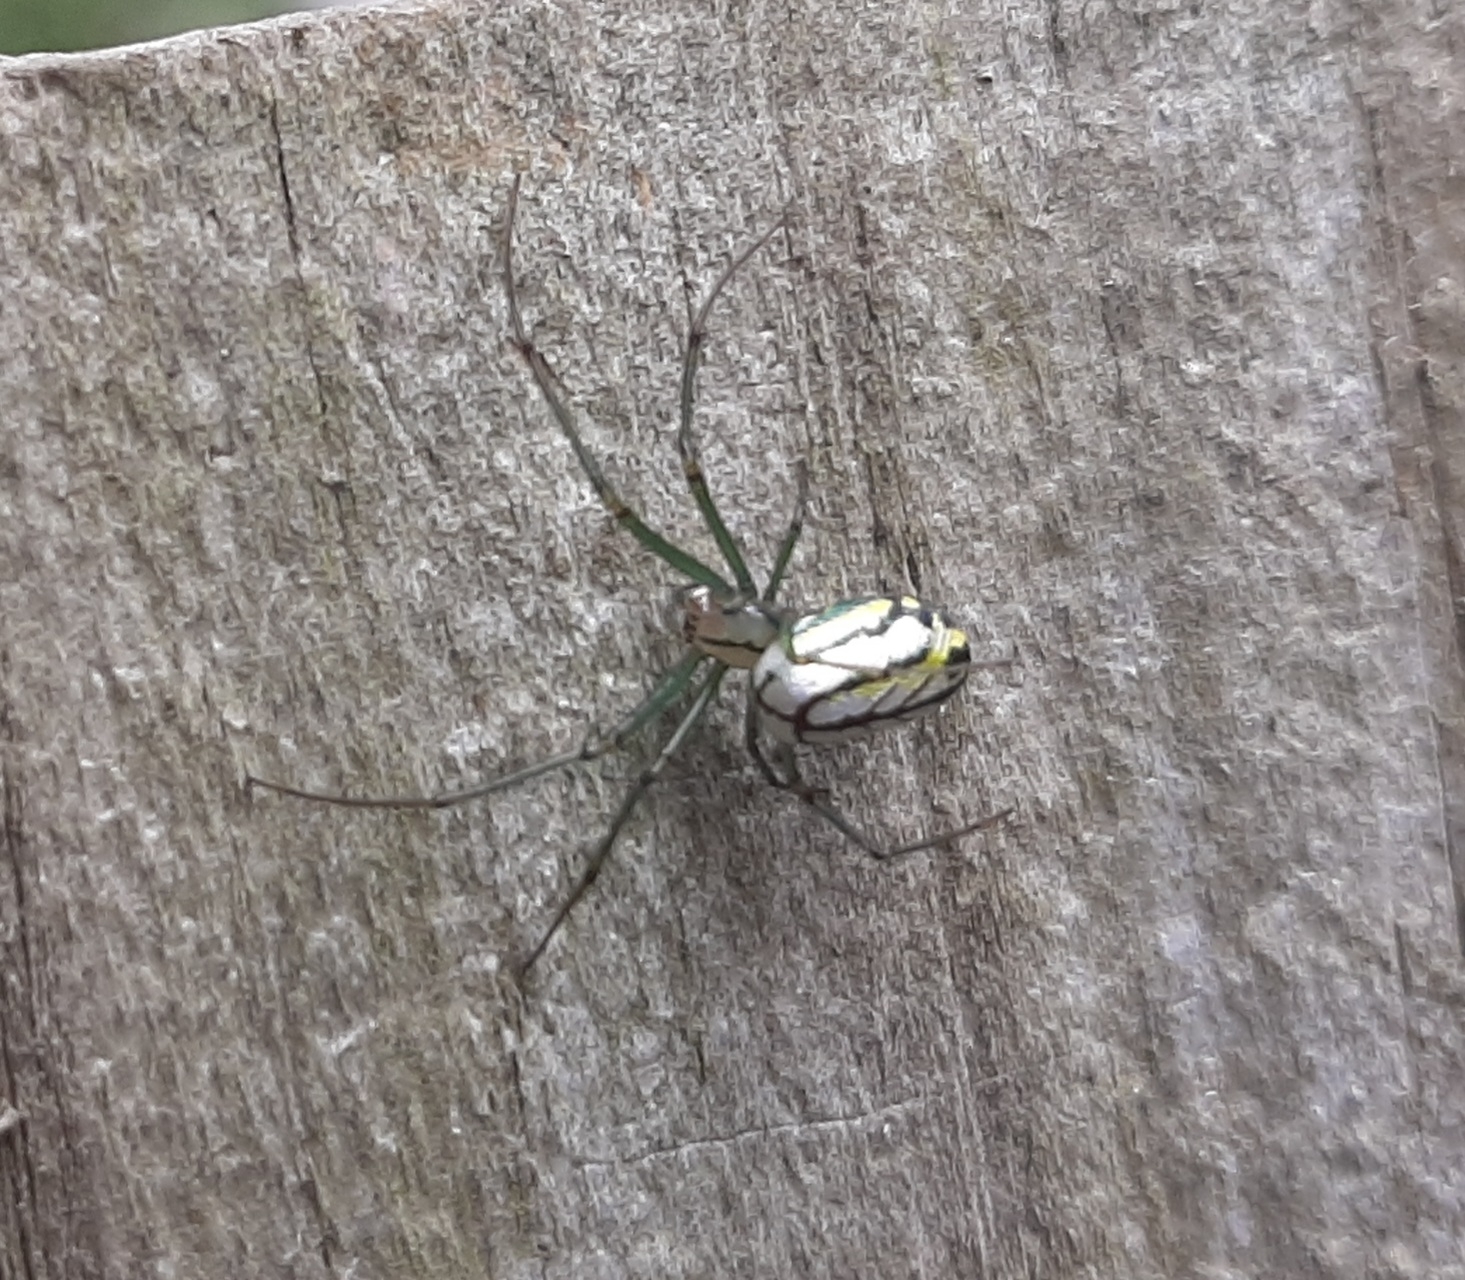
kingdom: Animalia
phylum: Arthropoda
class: Arachnida
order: Araneae
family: Tetragnathidae
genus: Leucauge
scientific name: Leucauge venusta
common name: Longjawed orb weavers
